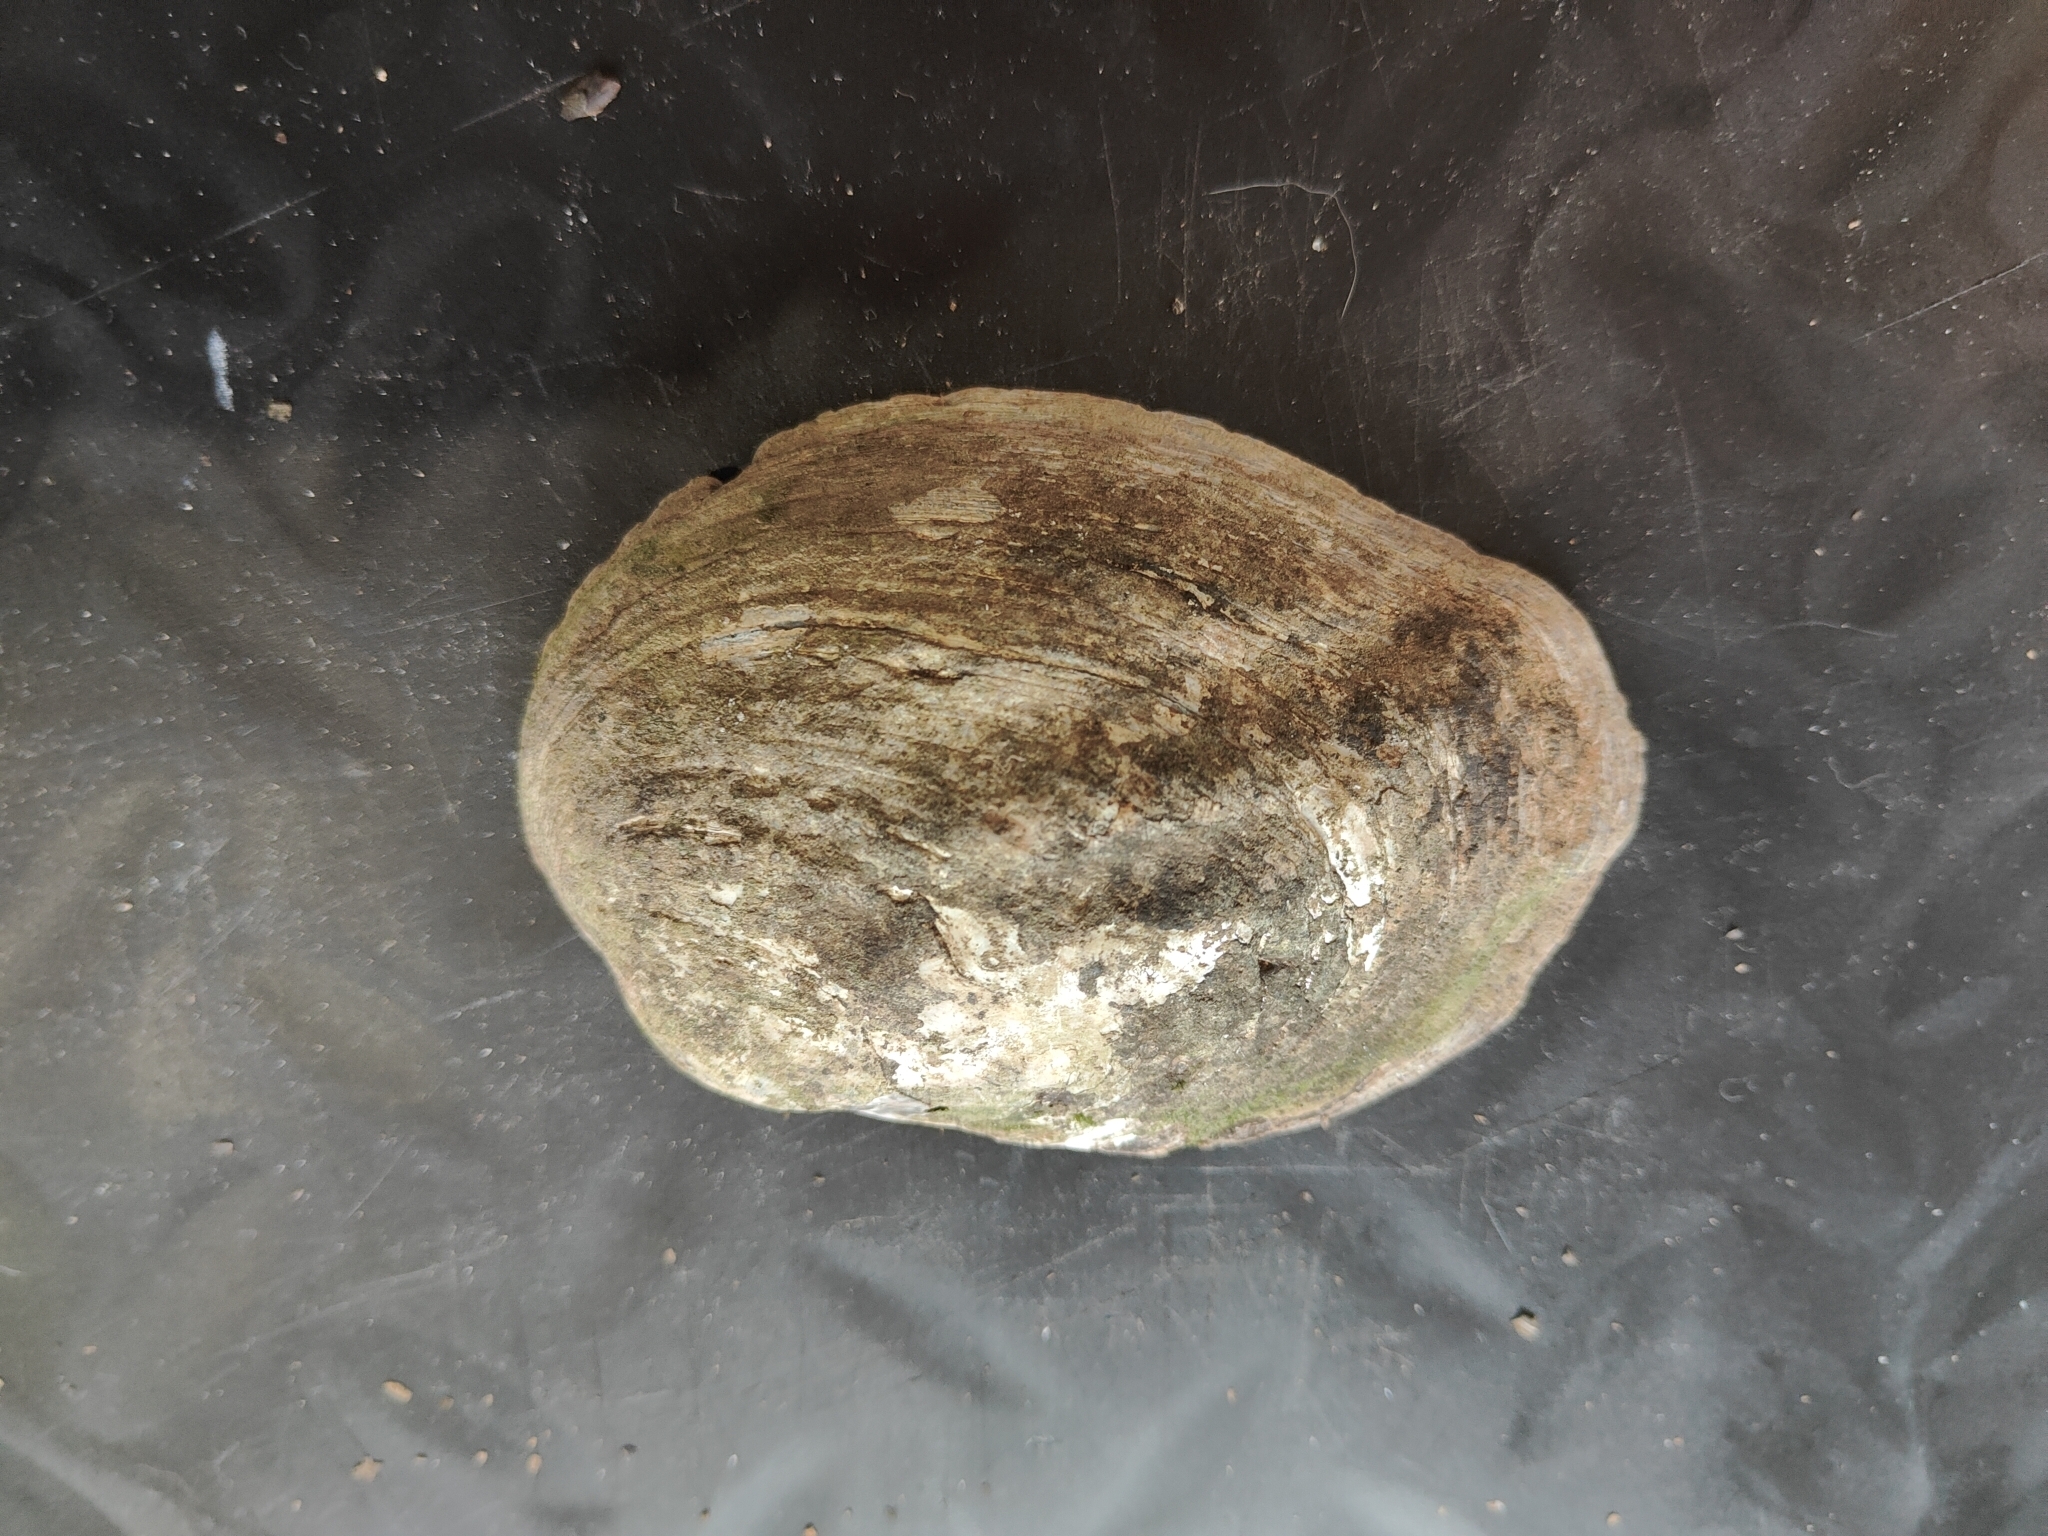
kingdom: Animalia
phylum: Mollusca
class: Bivalvia
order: Unionida
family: Unionidae
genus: Amblema
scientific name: Amblema plicata
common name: Threeridge
